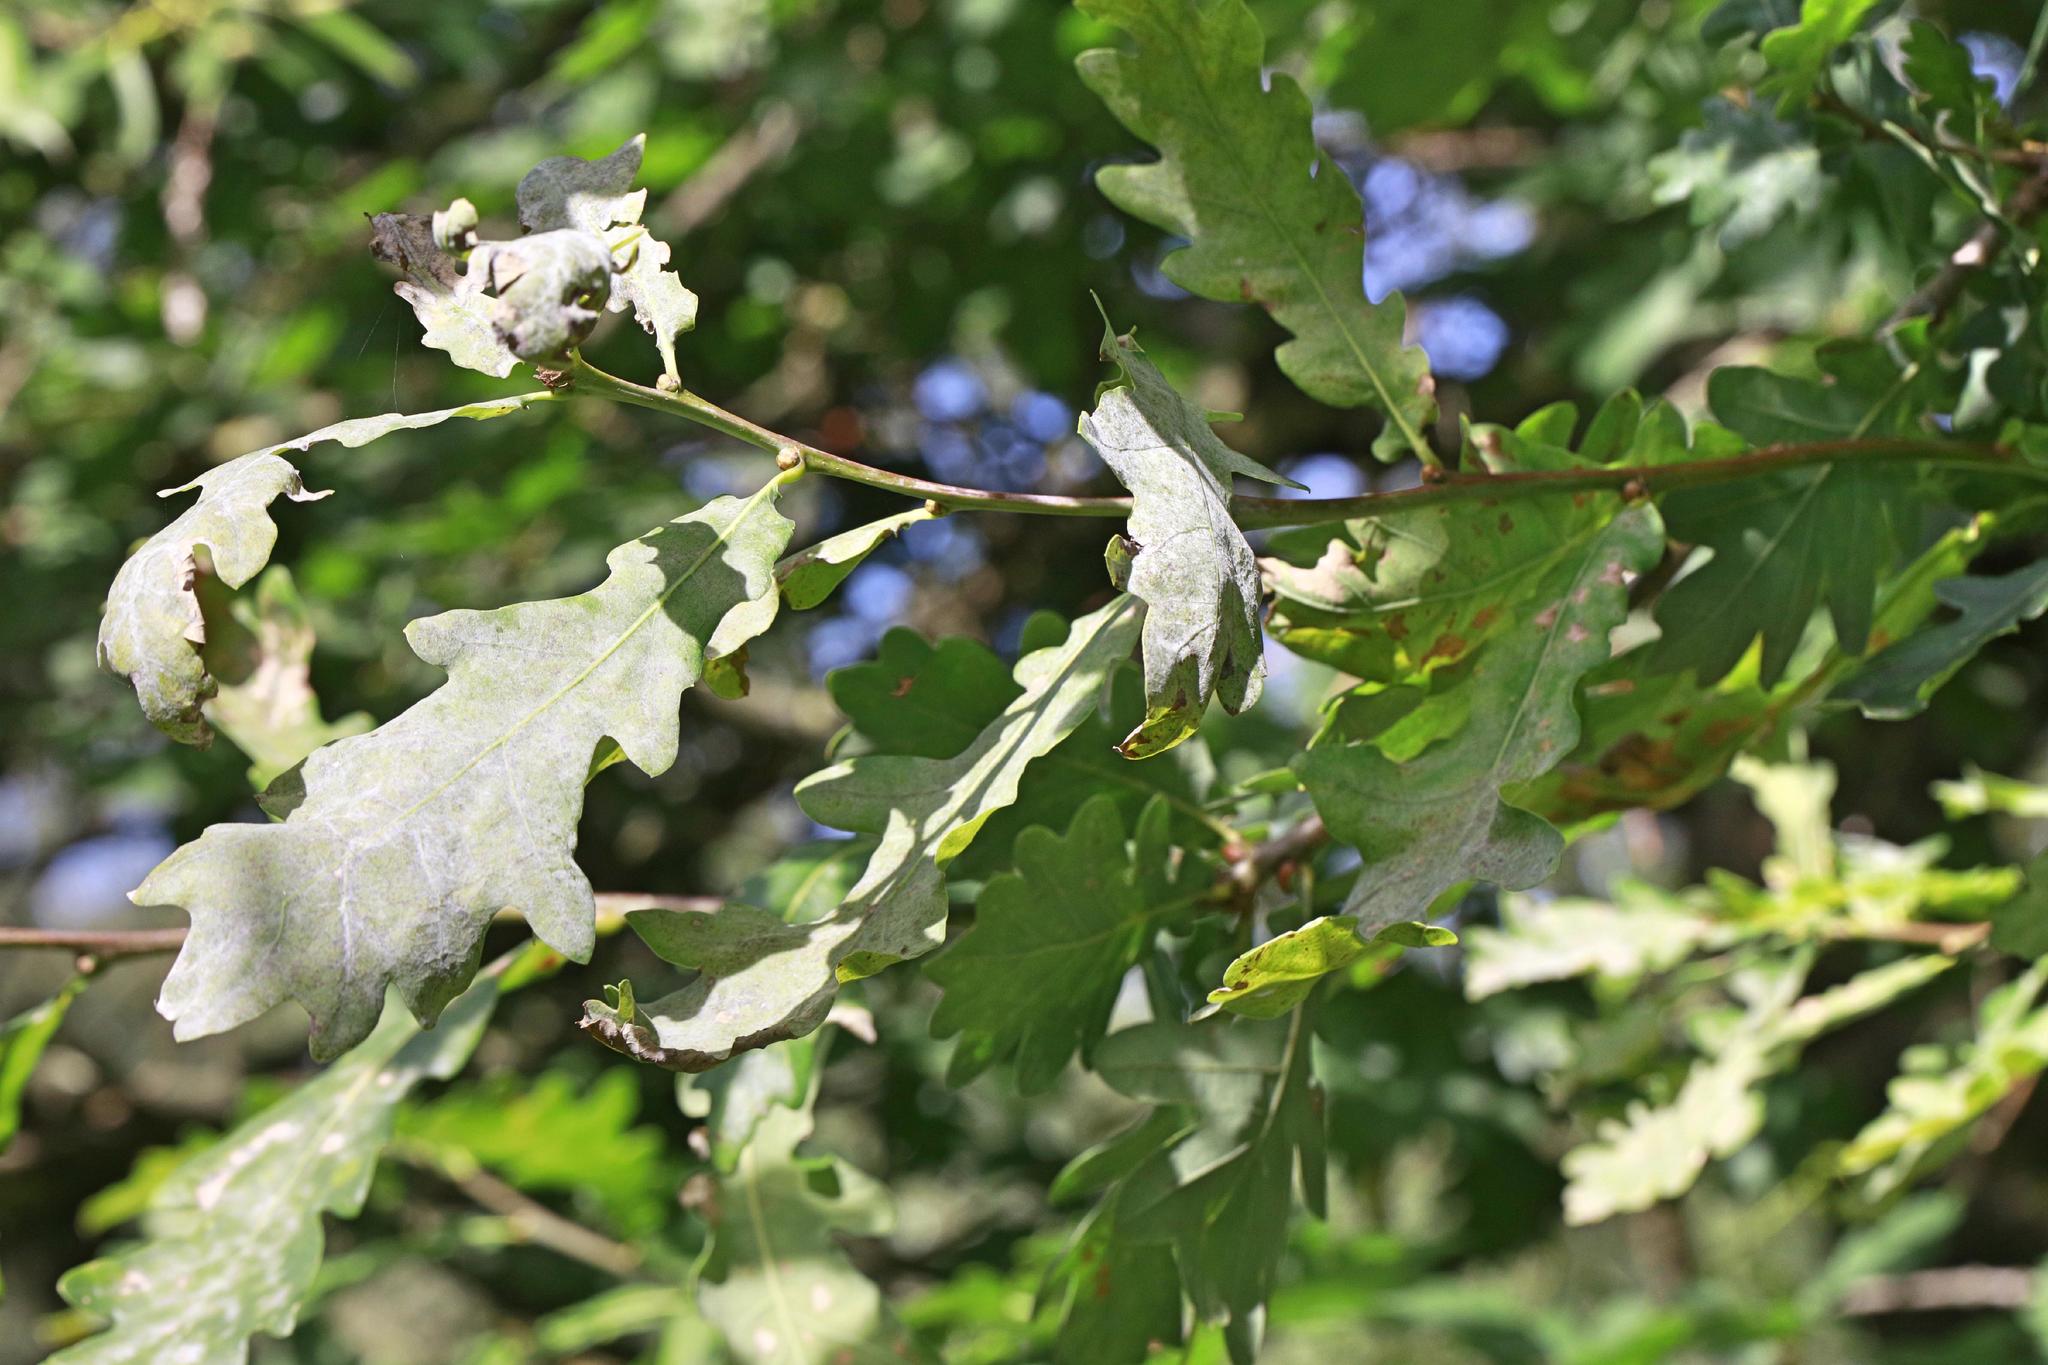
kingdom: Fungi
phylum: Ascomycota
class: Leotiomycetes
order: Helotiales
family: Erysiphaceae
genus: Erysiphe
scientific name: Erysiphe alphitoides
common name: Oak mildew
